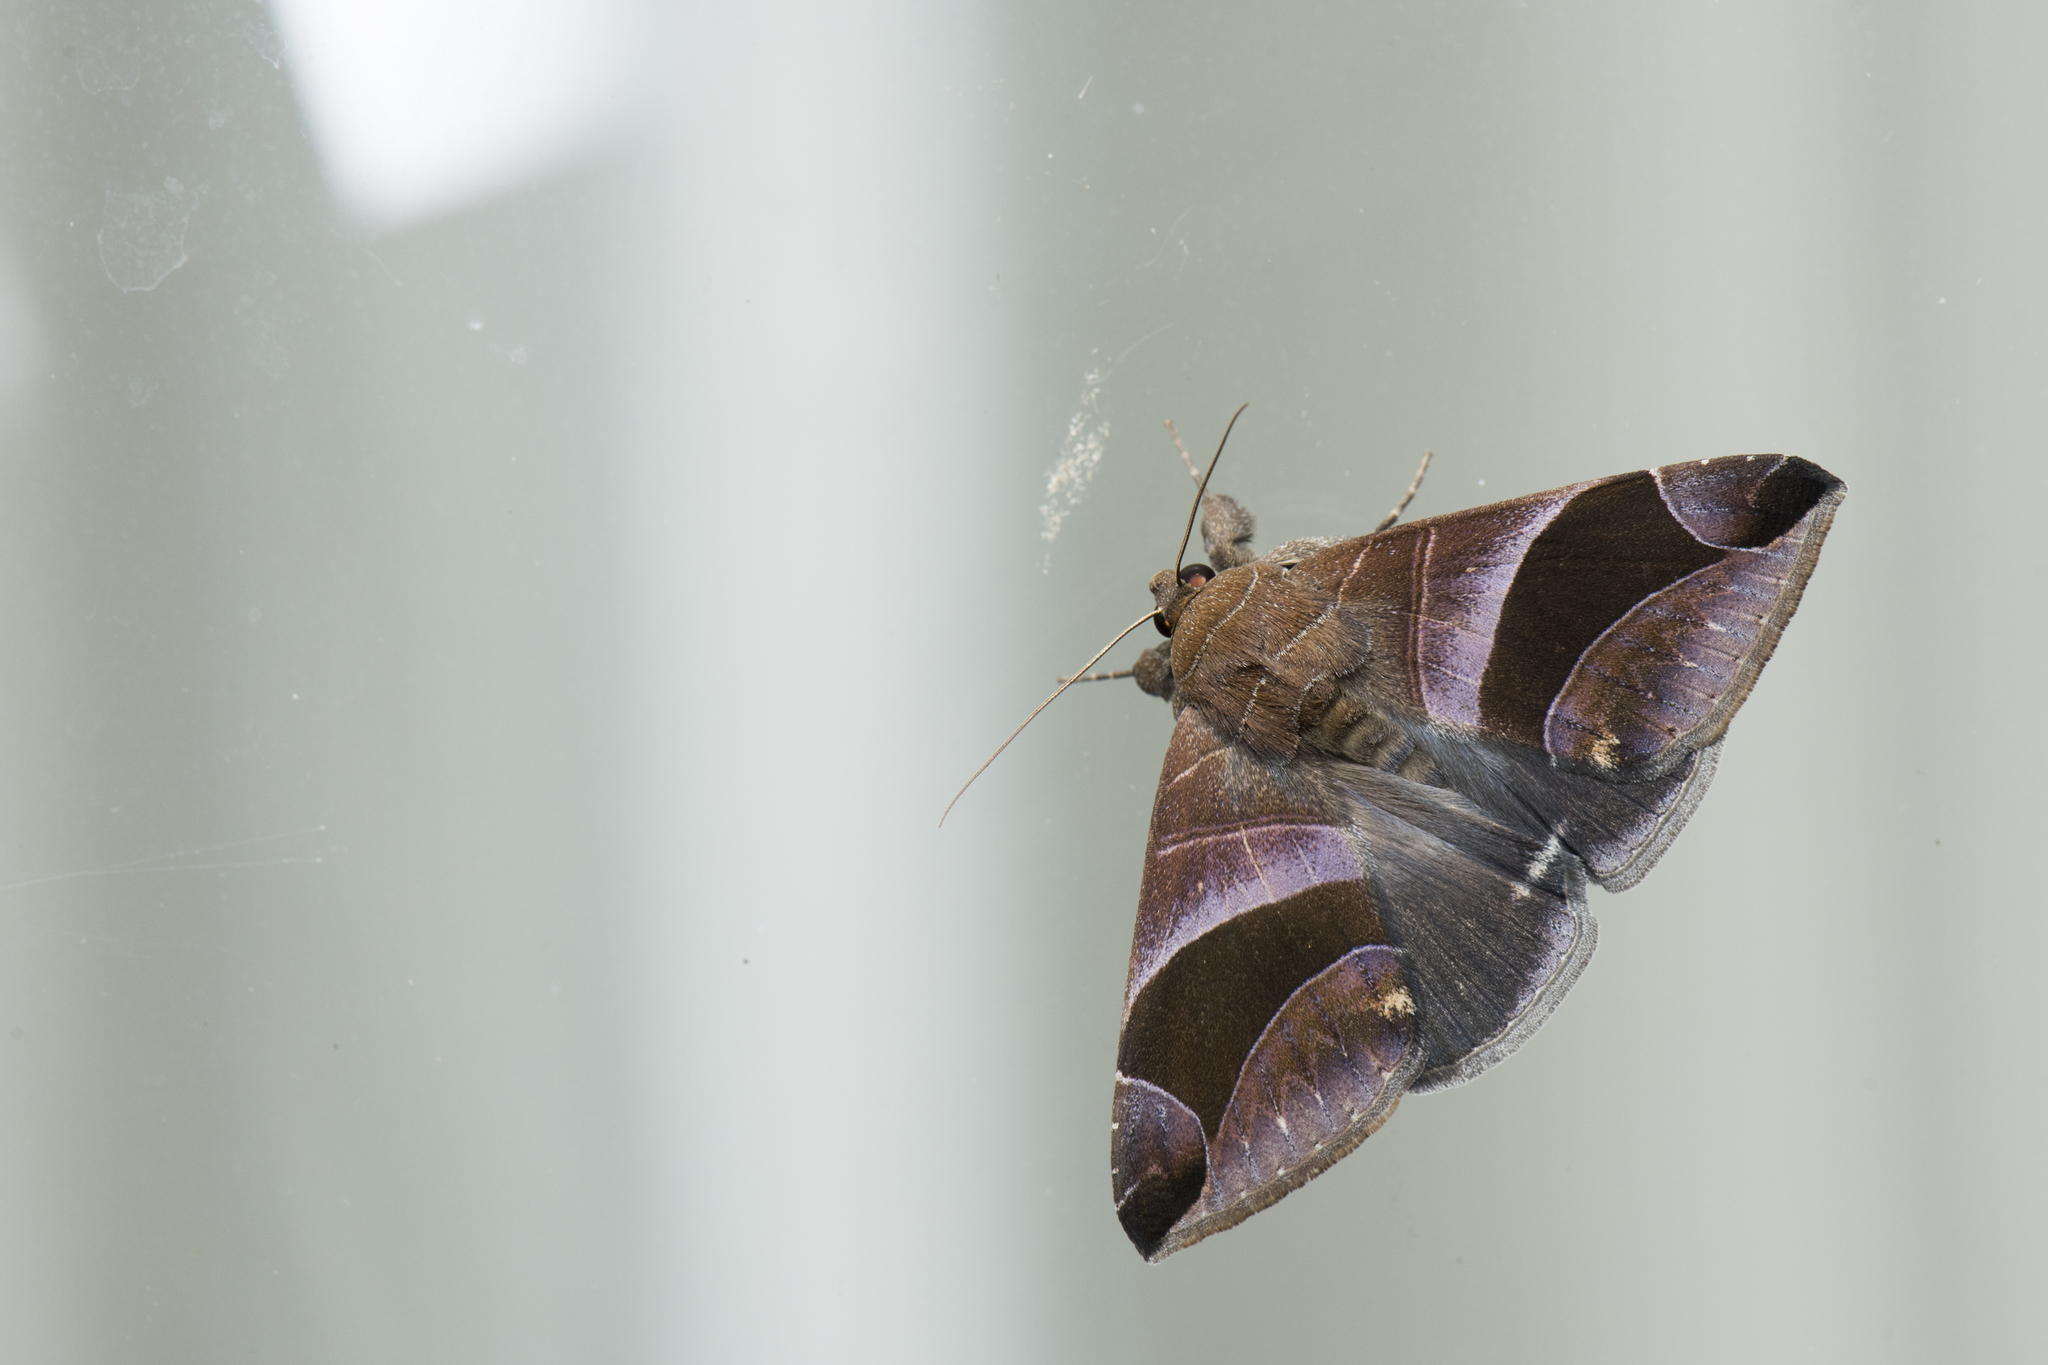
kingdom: Animalia
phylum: Arthropoda
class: Insecta
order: Lepidoptera
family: Erebidae
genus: Bastilla
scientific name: Bastilla acuta
